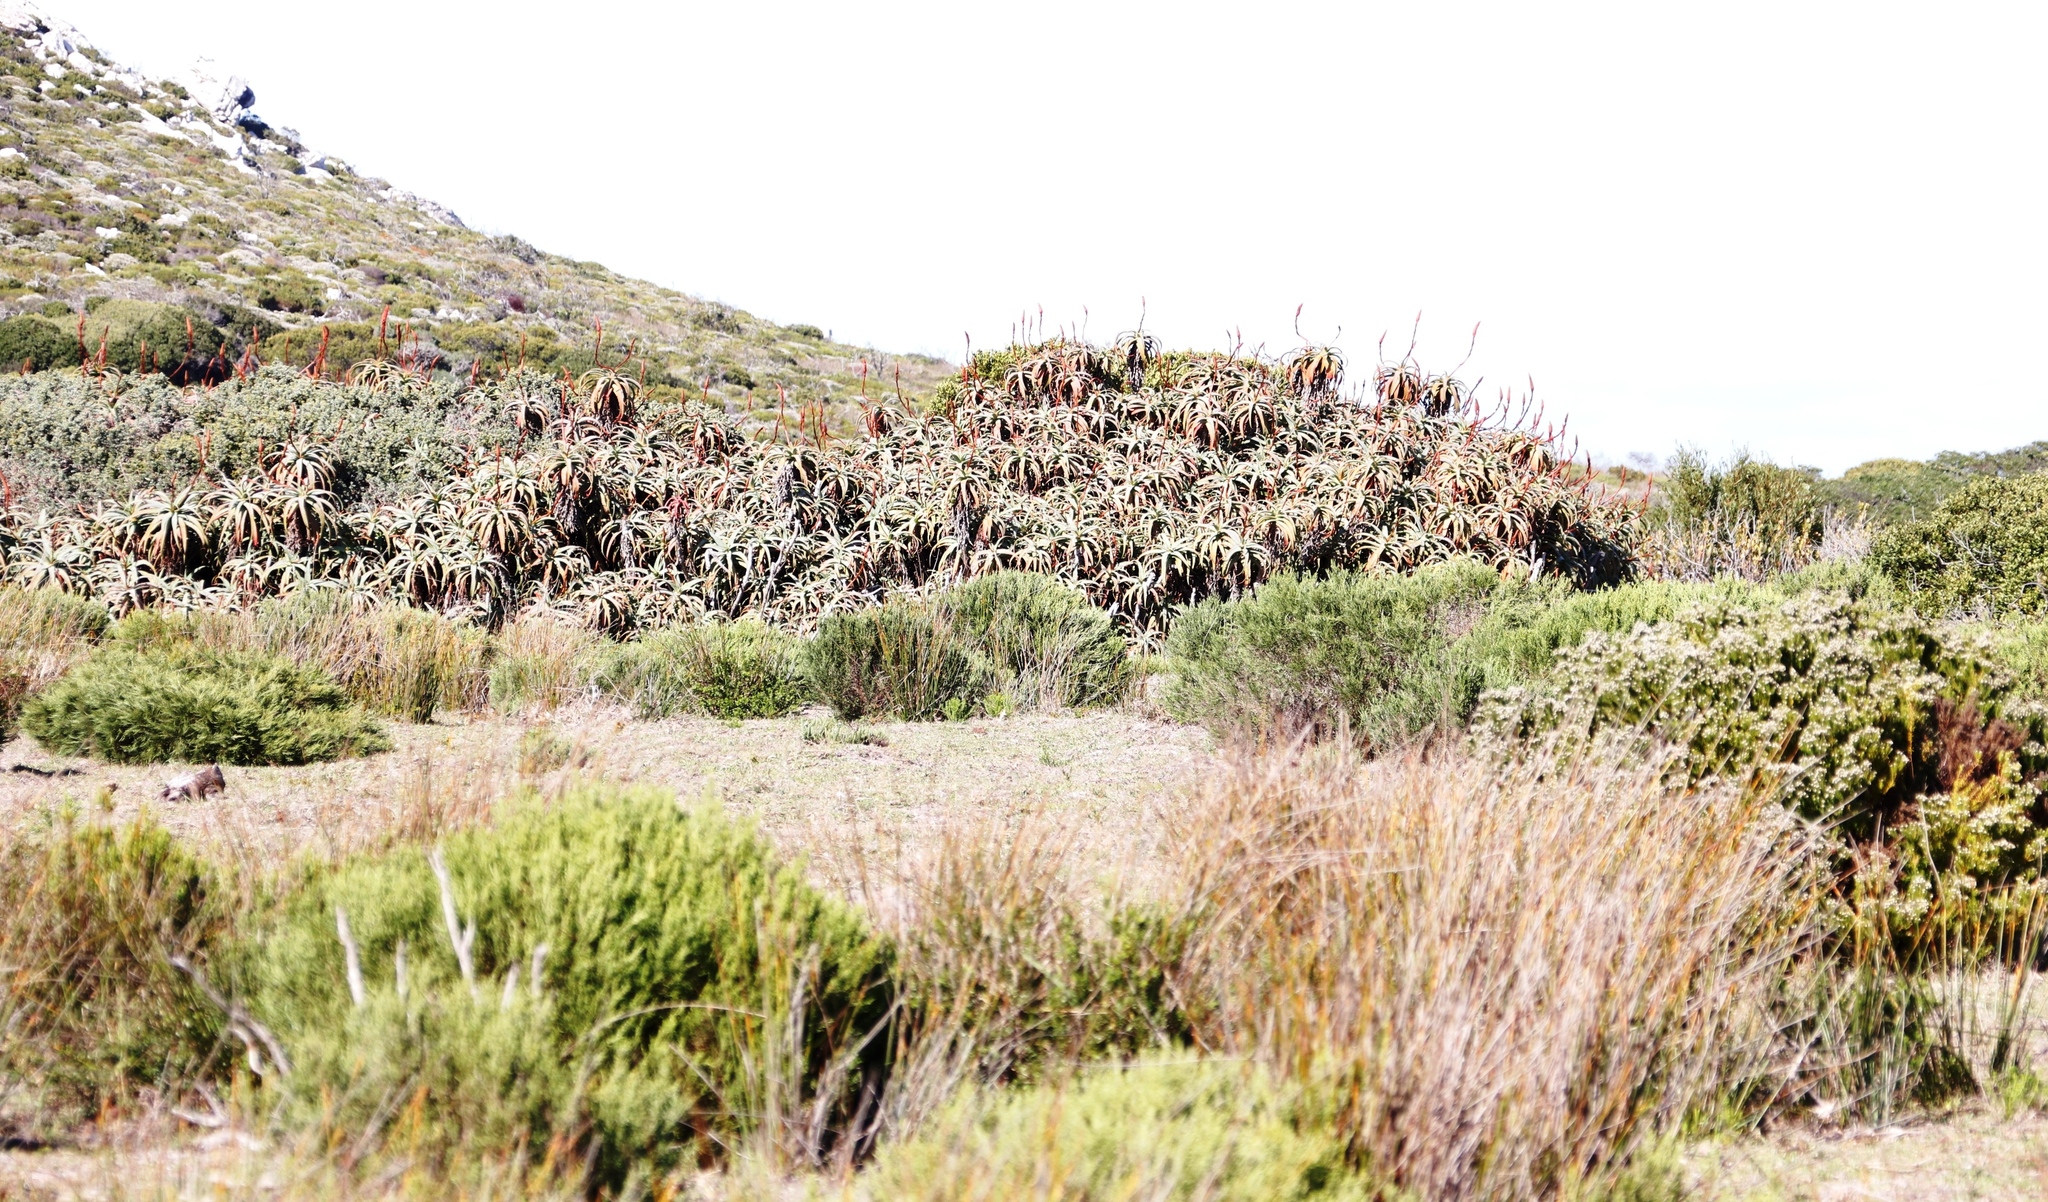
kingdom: Plantae
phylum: Tracheophyta
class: Liliopsida
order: Asparagales
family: Asphodelaceae
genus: Aloe
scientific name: Aloe arborescens
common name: Candelabra aloe
